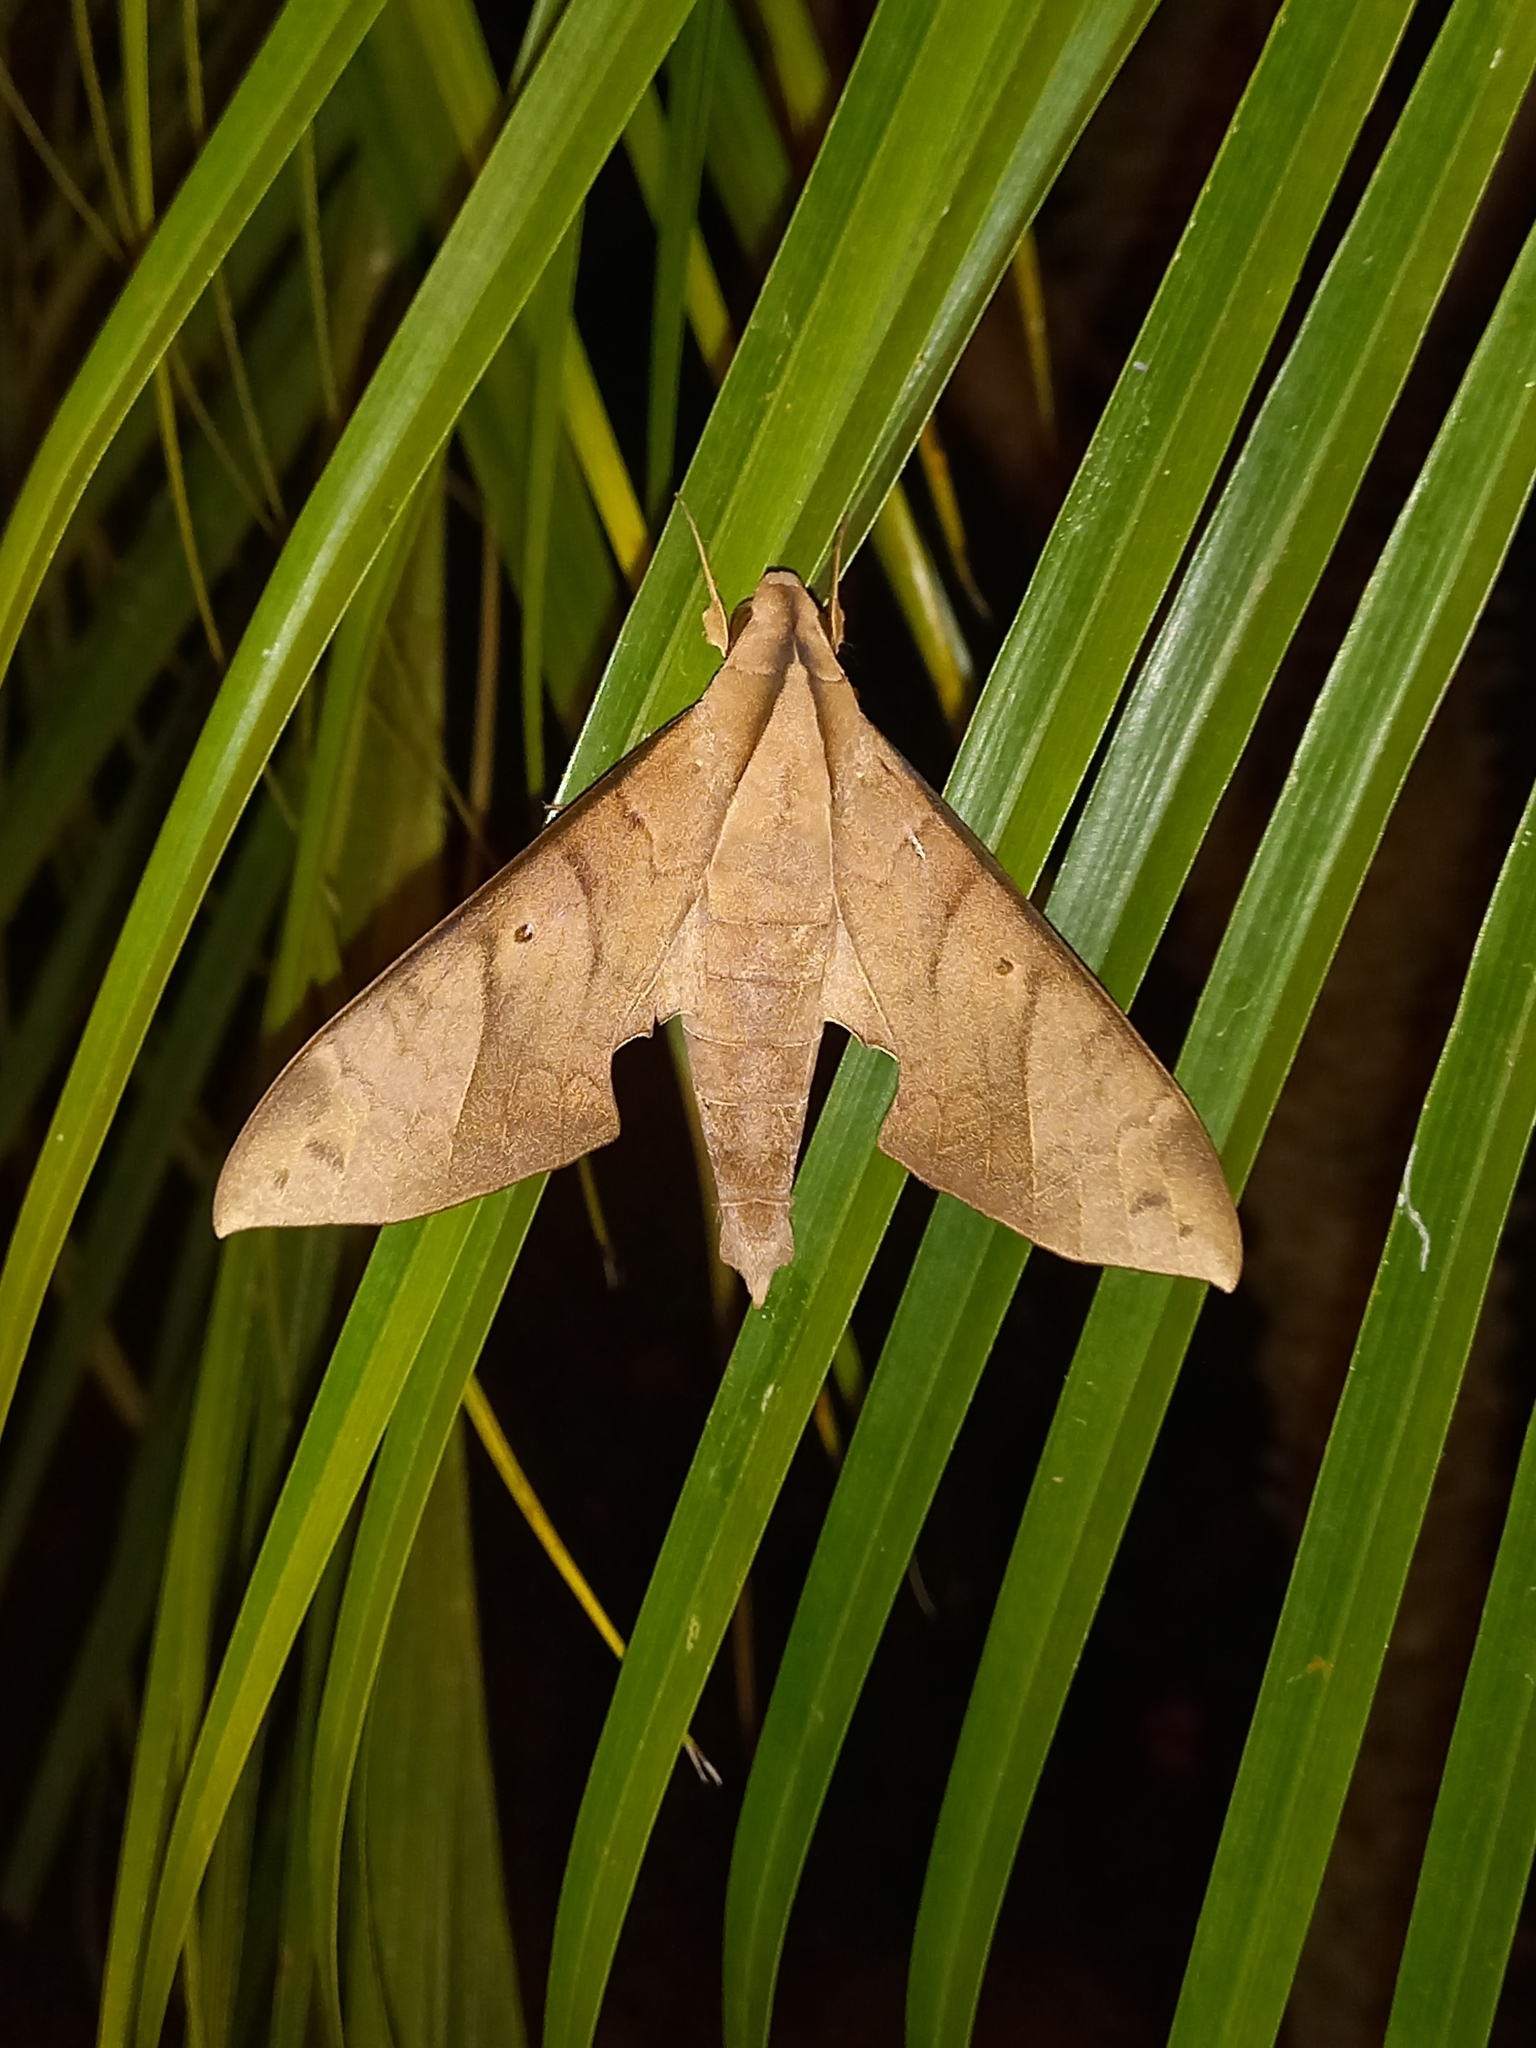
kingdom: Animalia
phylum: Arthropoda
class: Insecta
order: Lepidoptera
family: Sphingidae
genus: Pachylia
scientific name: Pachylia darceta
